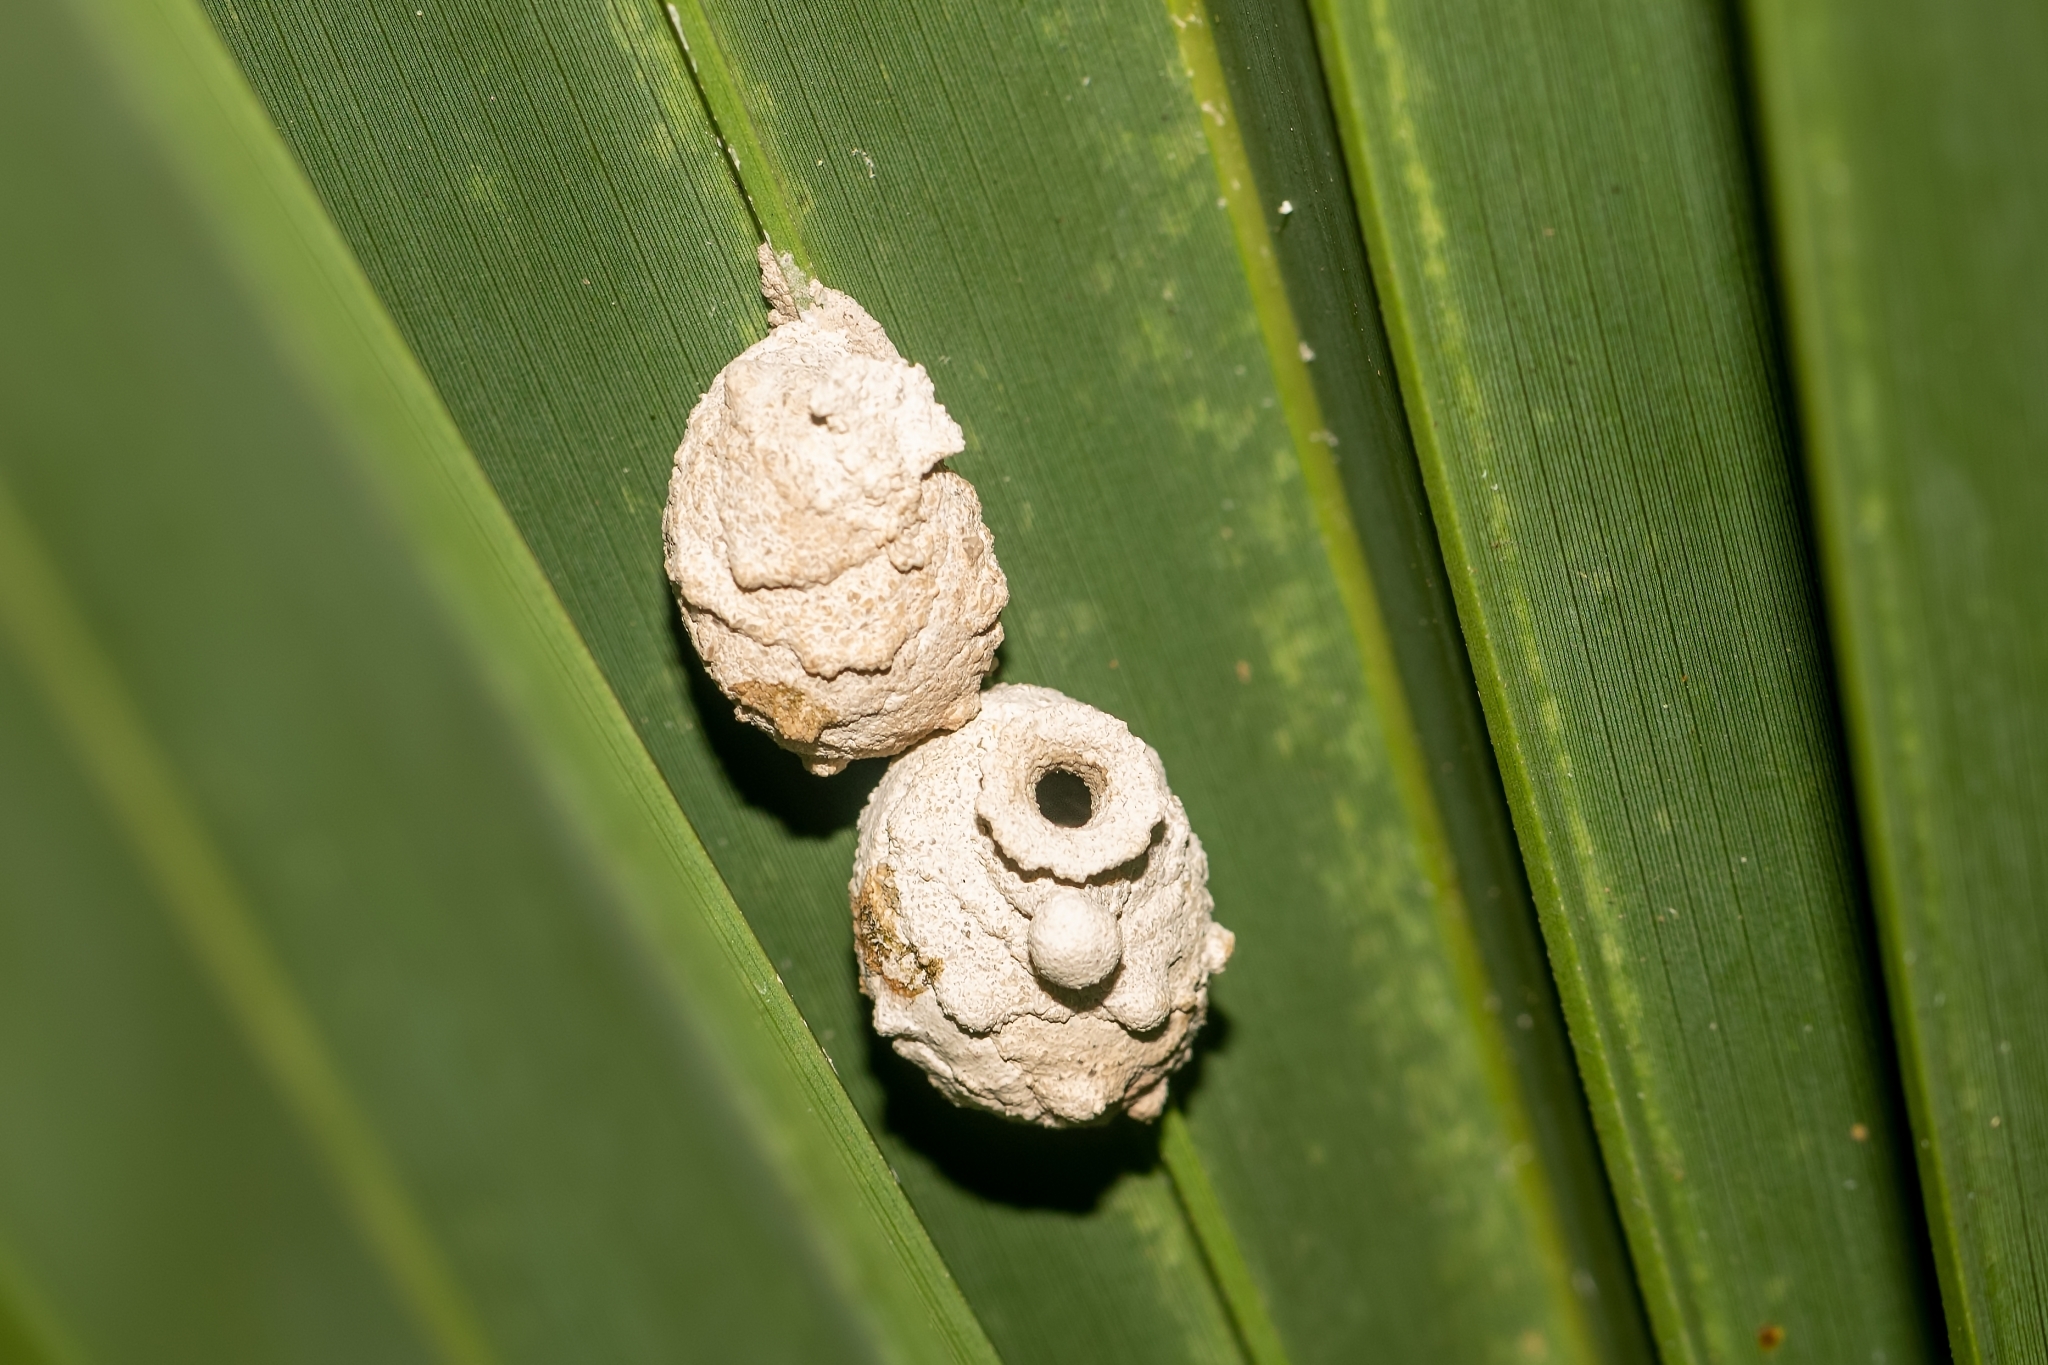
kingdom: Animalia
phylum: Arthropoda
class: Insecta
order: Hymenoptera
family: Eumenidae
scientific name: Eumenidae
